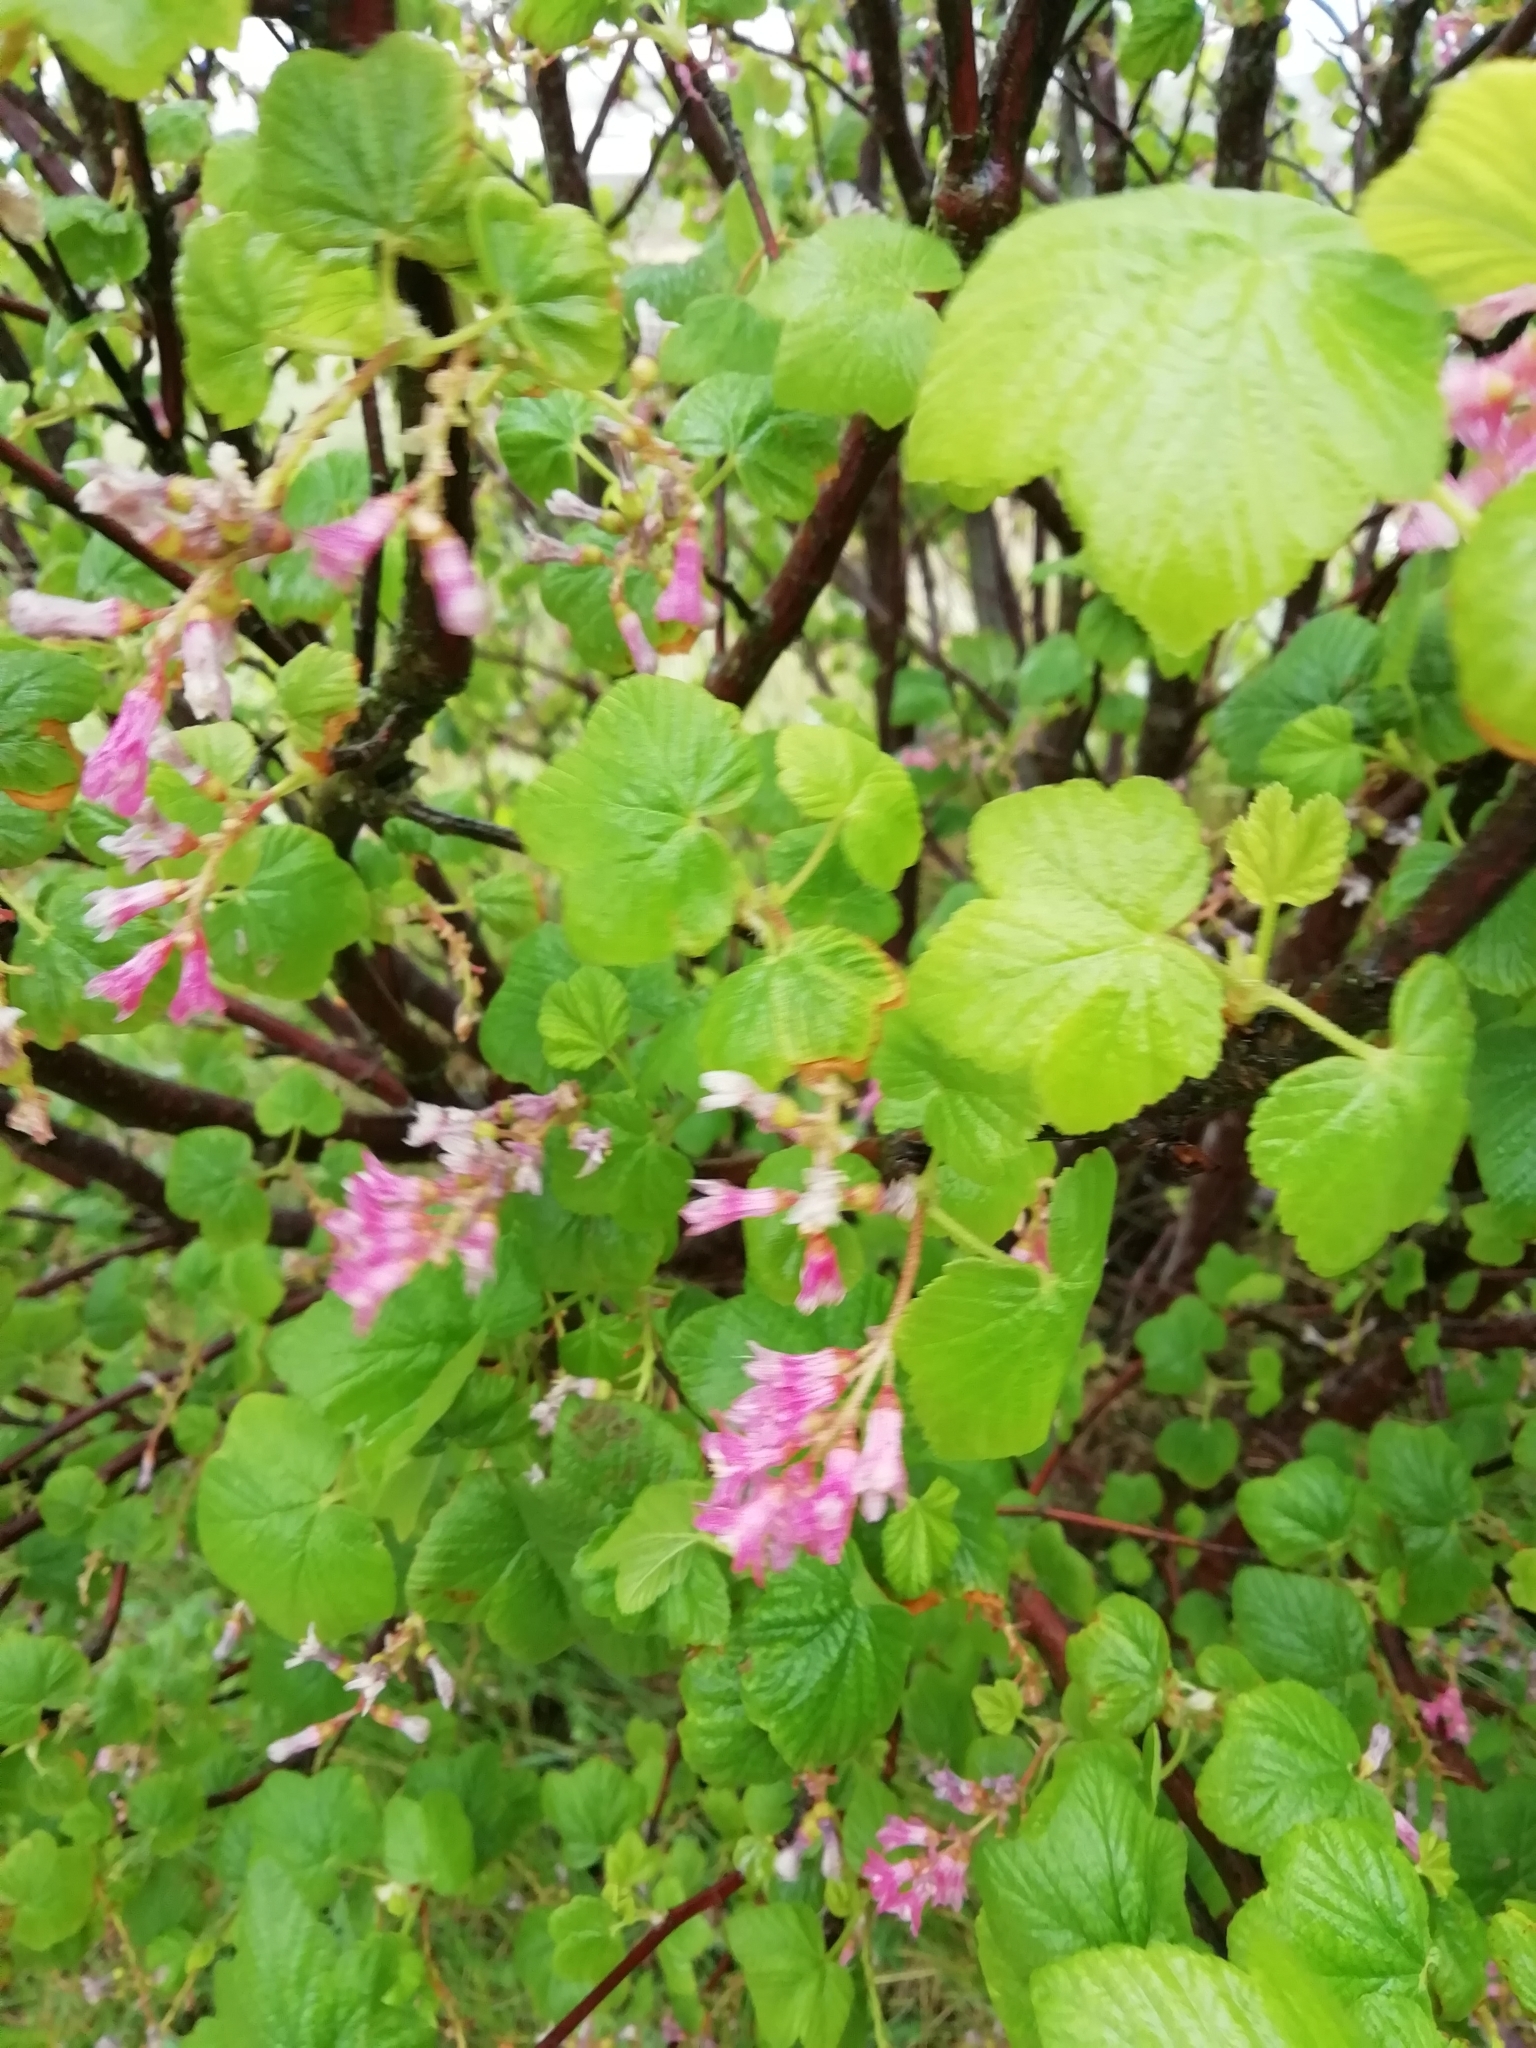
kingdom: Plantae
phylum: Tracheophyta
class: Magnoliopsida
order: Saxifragales
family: Grossulariaceae
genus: Ribes
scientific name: Ribes sanguineum
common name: Flowering currant
